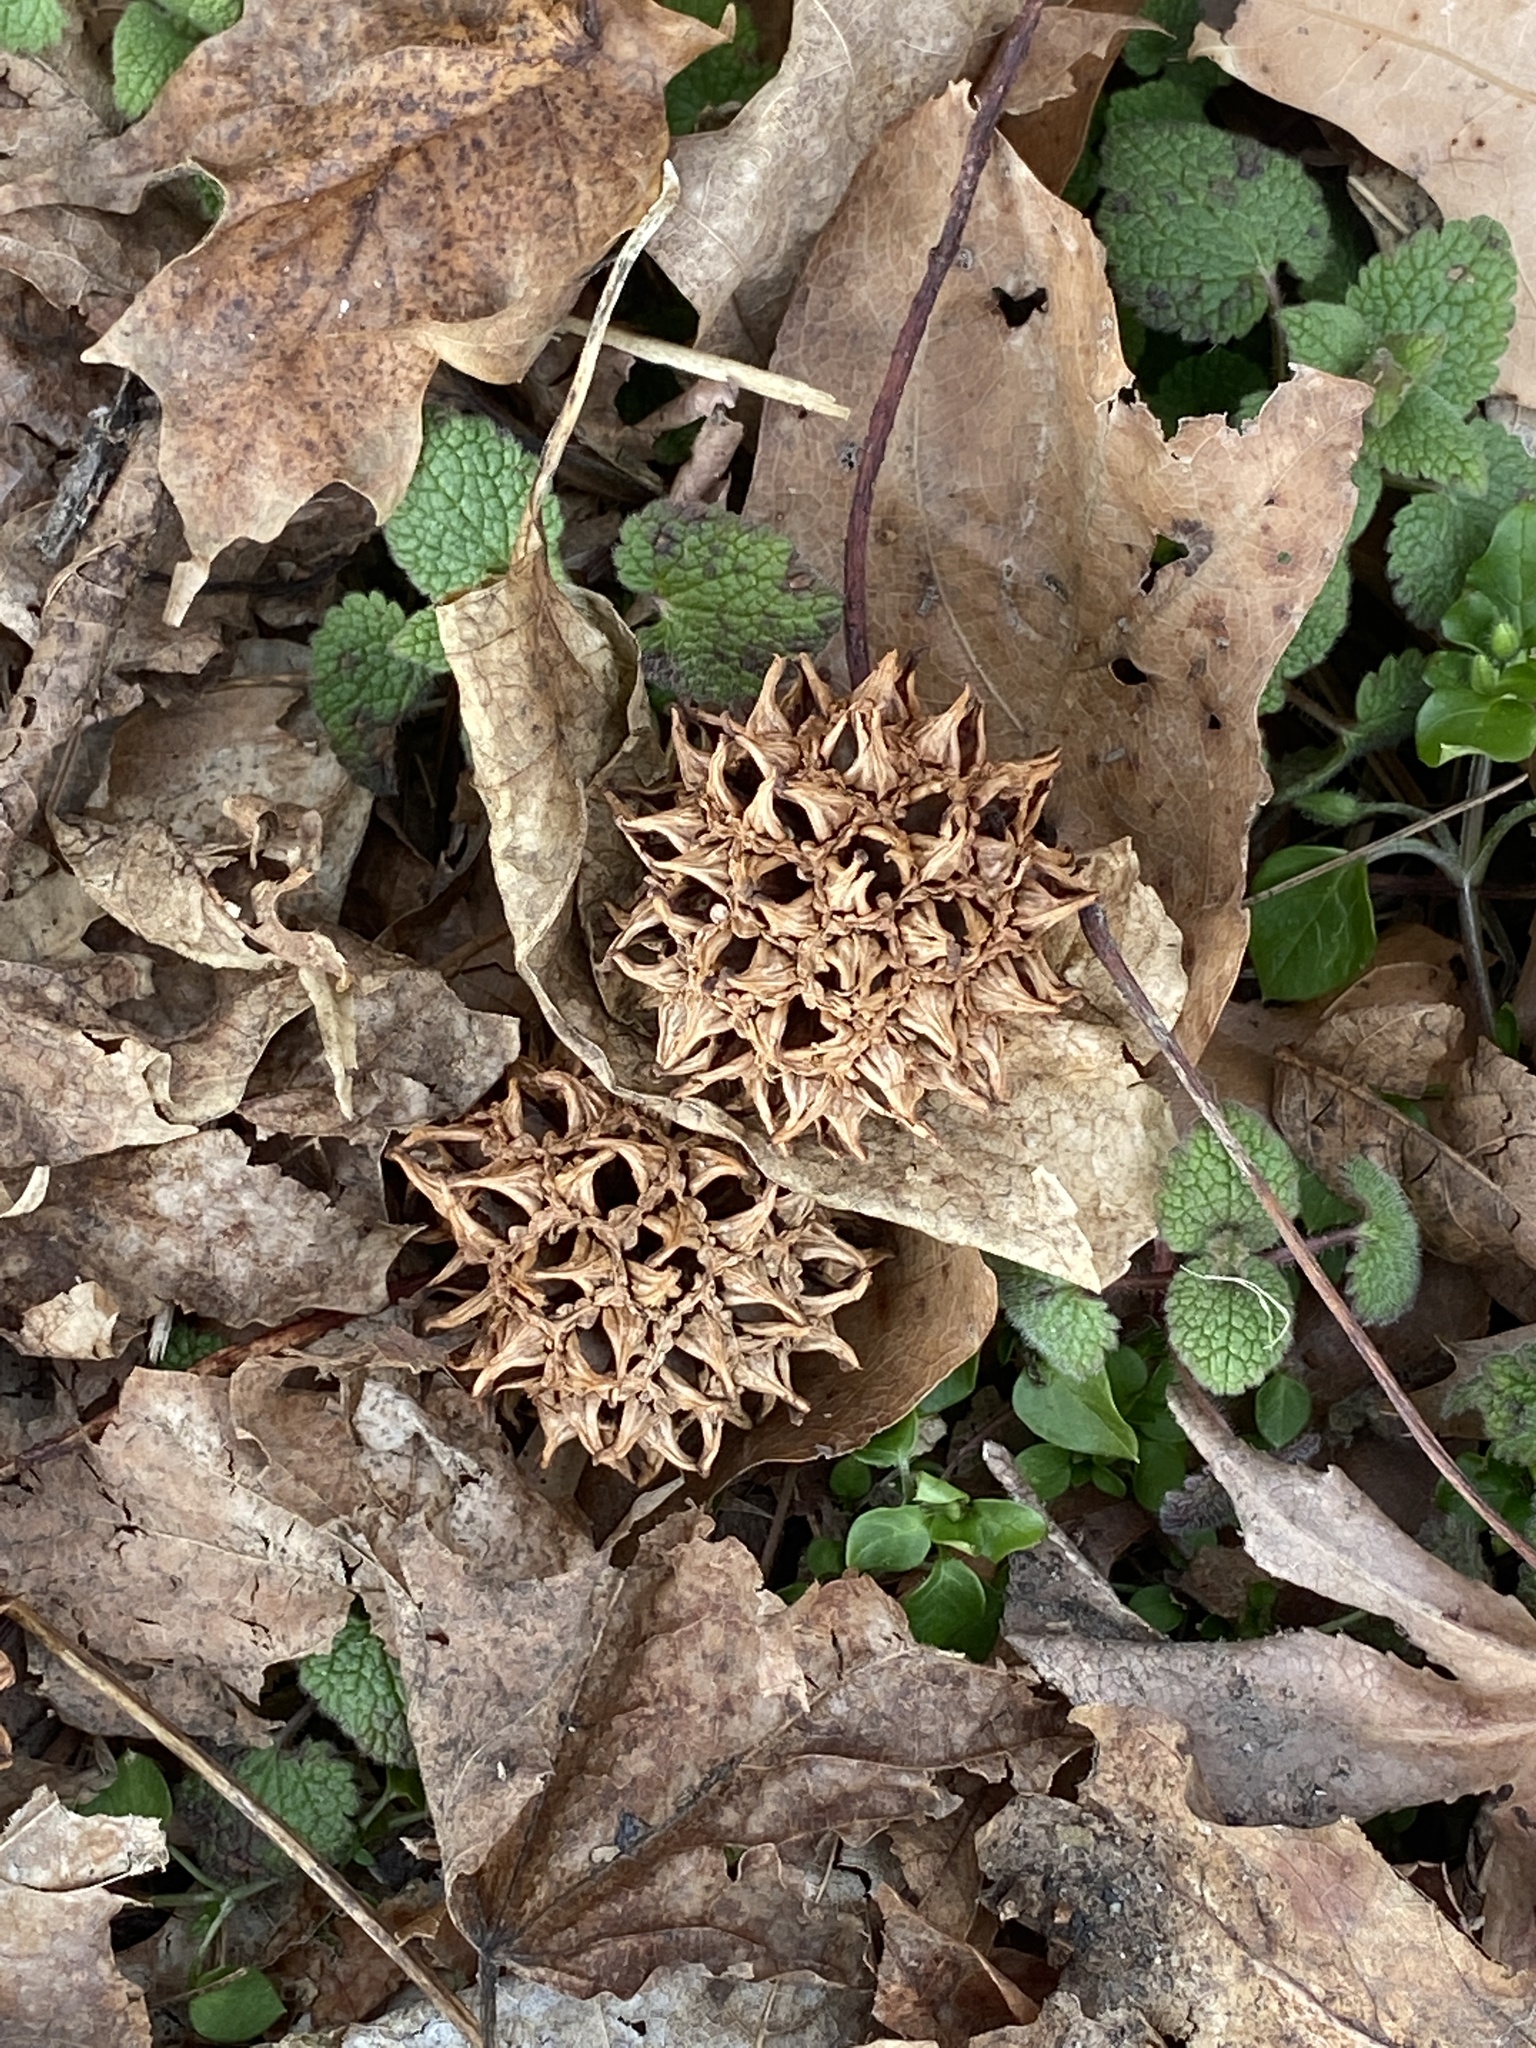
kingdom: Plantae
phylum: Tracheophyta
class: Magnoliopsida
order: Saxifragales
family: Altingiaceae
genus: Liquidambar
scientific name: Liquidambar styraciflua
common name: Sweet gum
